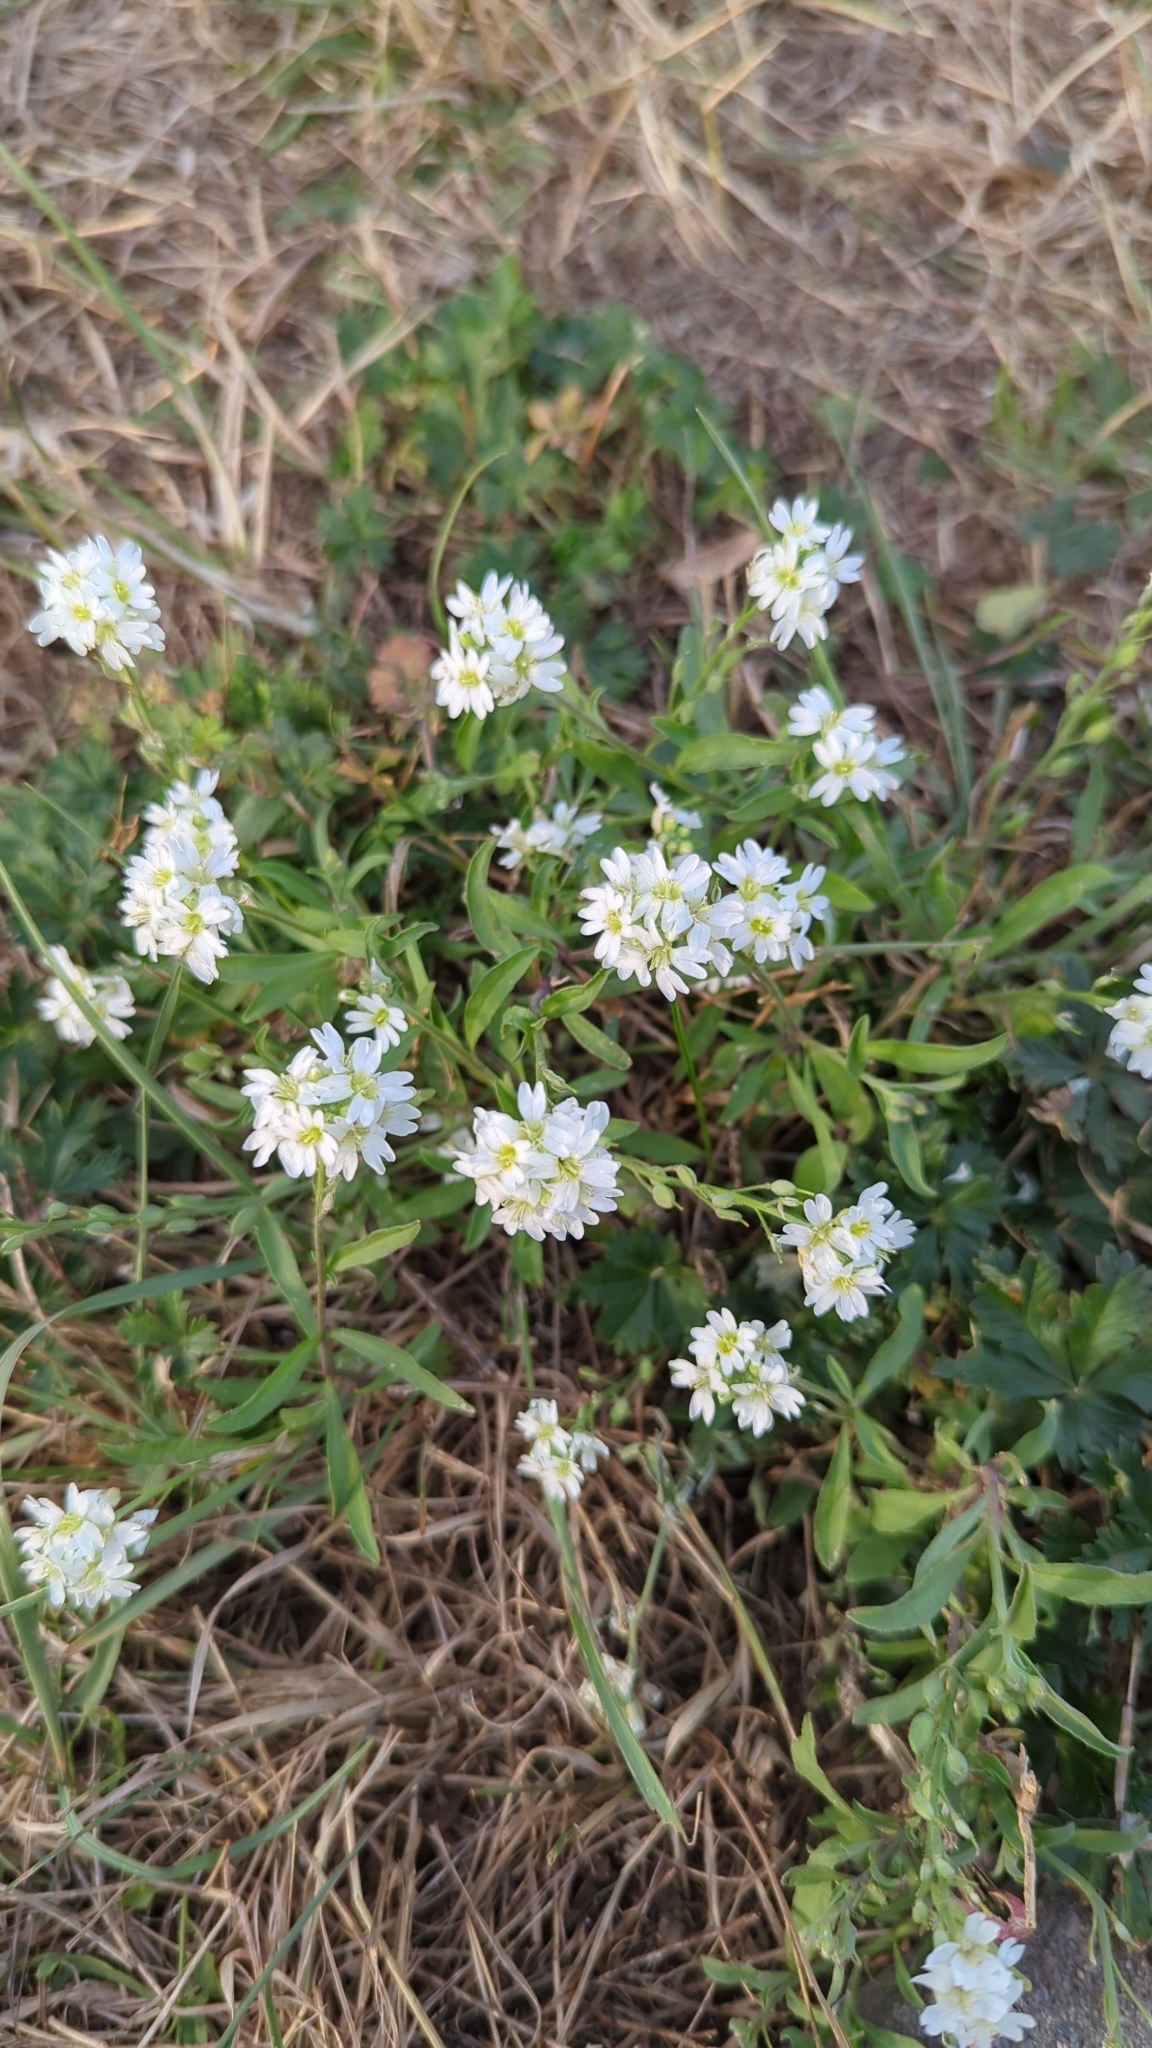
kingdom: Plantae
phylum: Tracheophyta
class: Magnoliopsida
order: Brassicales
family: Brassicaceae
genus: Berteroa
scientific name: Berteroa incana
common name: Hoary alison
